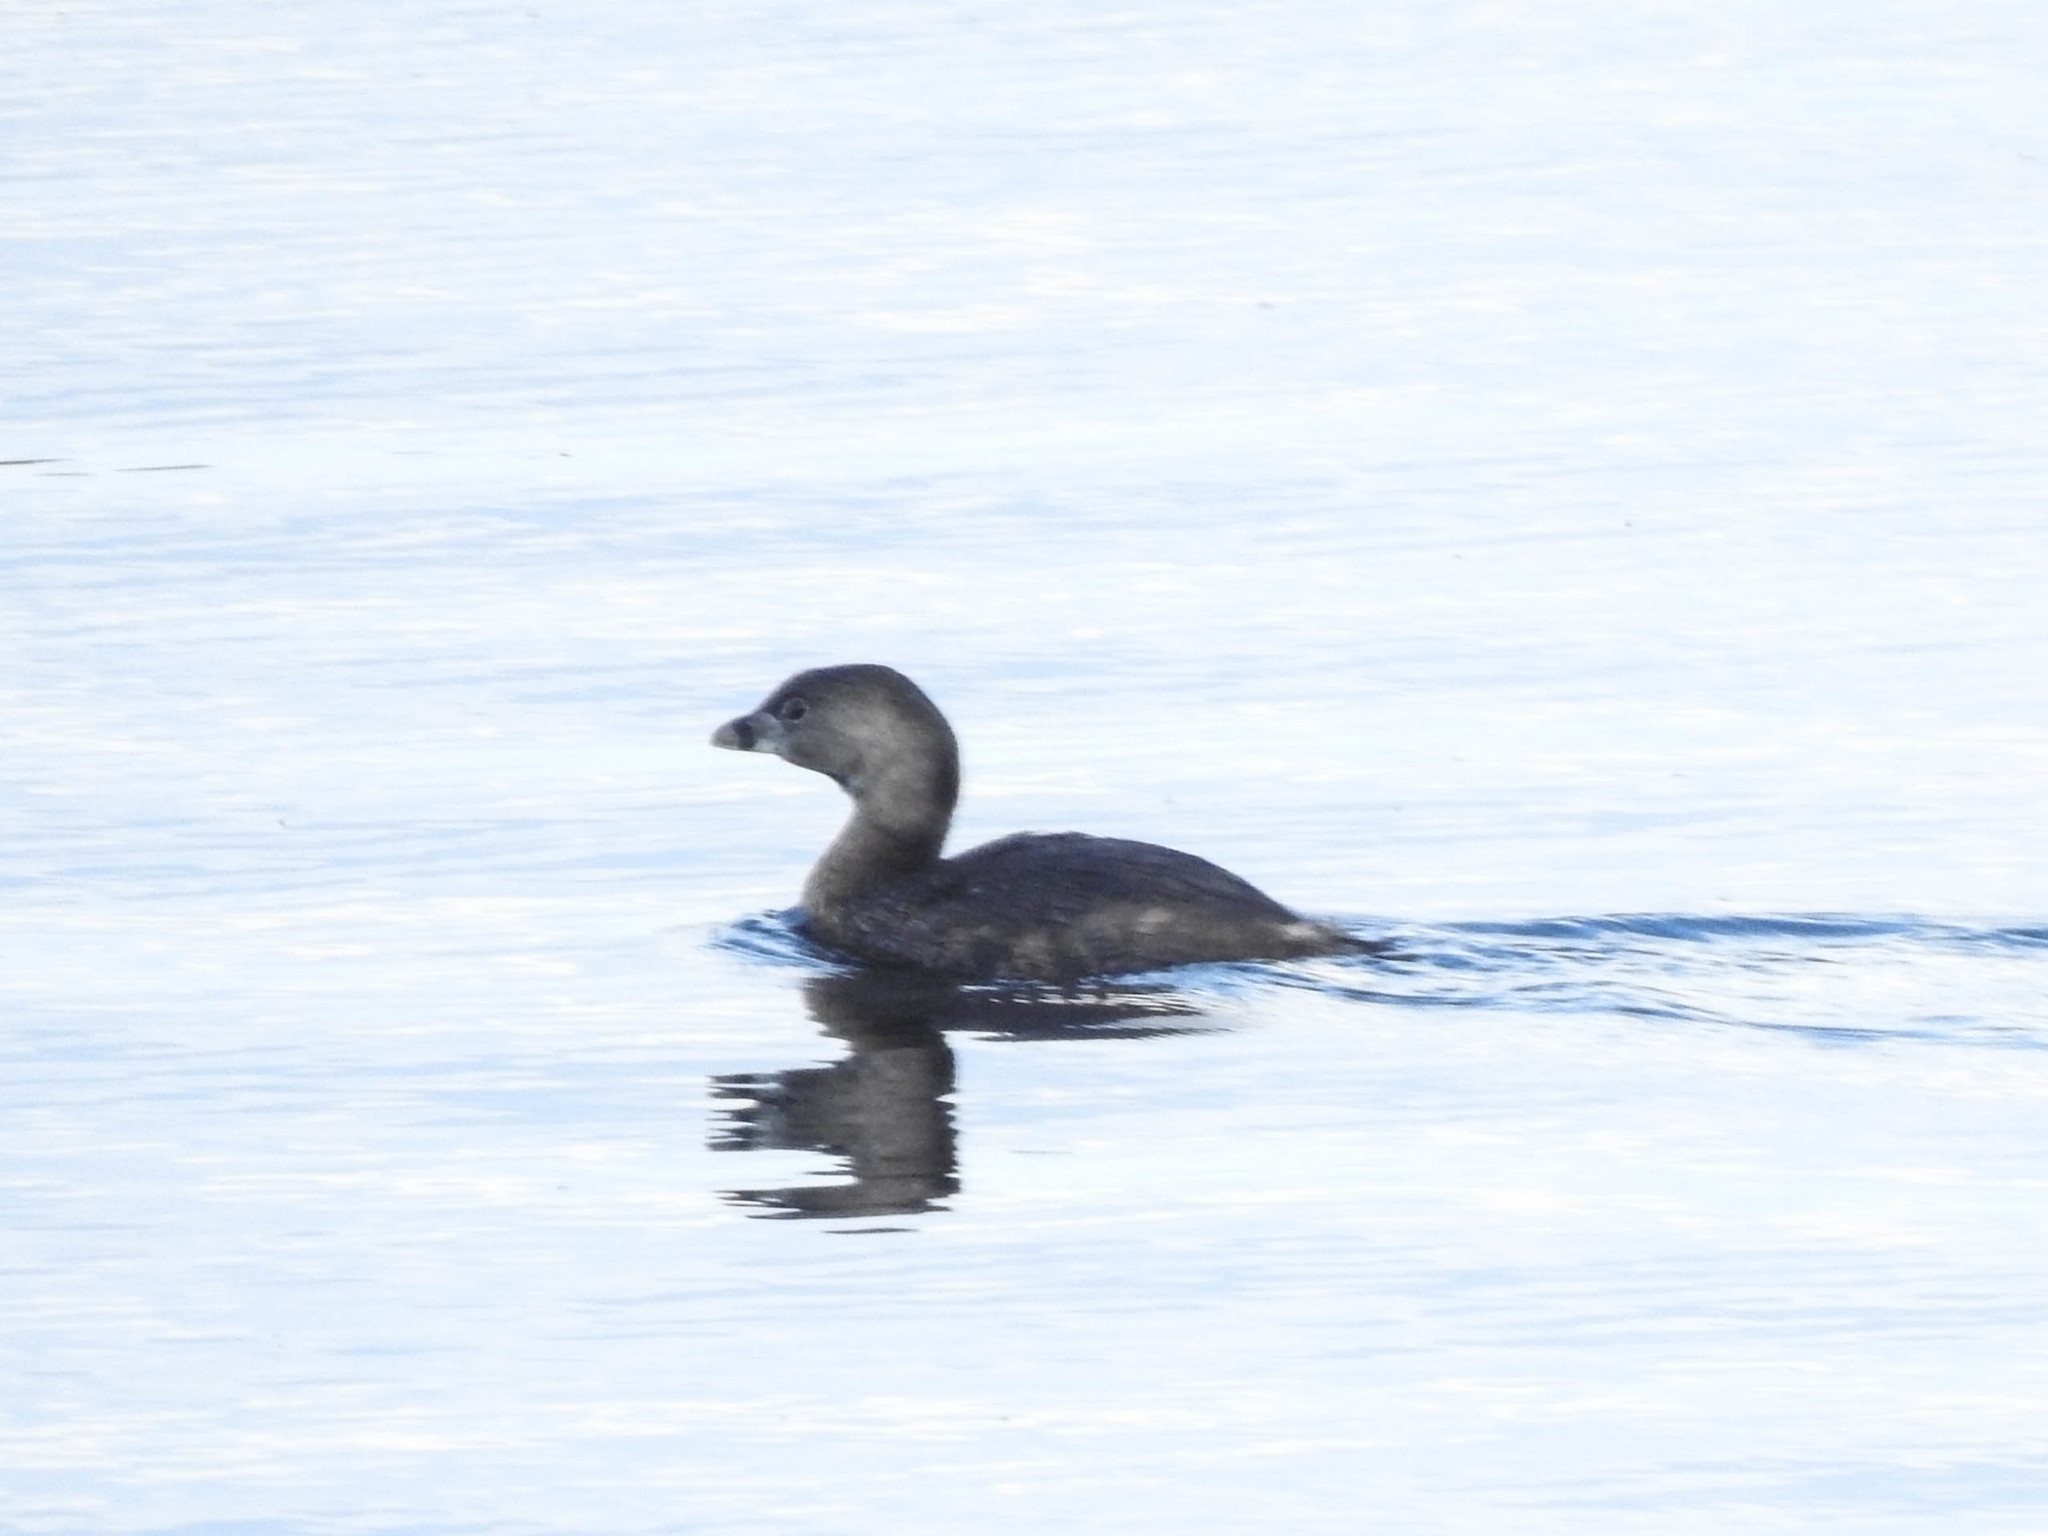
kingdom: Animalia
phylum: Chordata
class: Aves
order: Podicipediformes
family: Podicipedidae
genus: Podilymbus
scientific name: Podilymbus podiceps
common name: Pied-billed grebe
